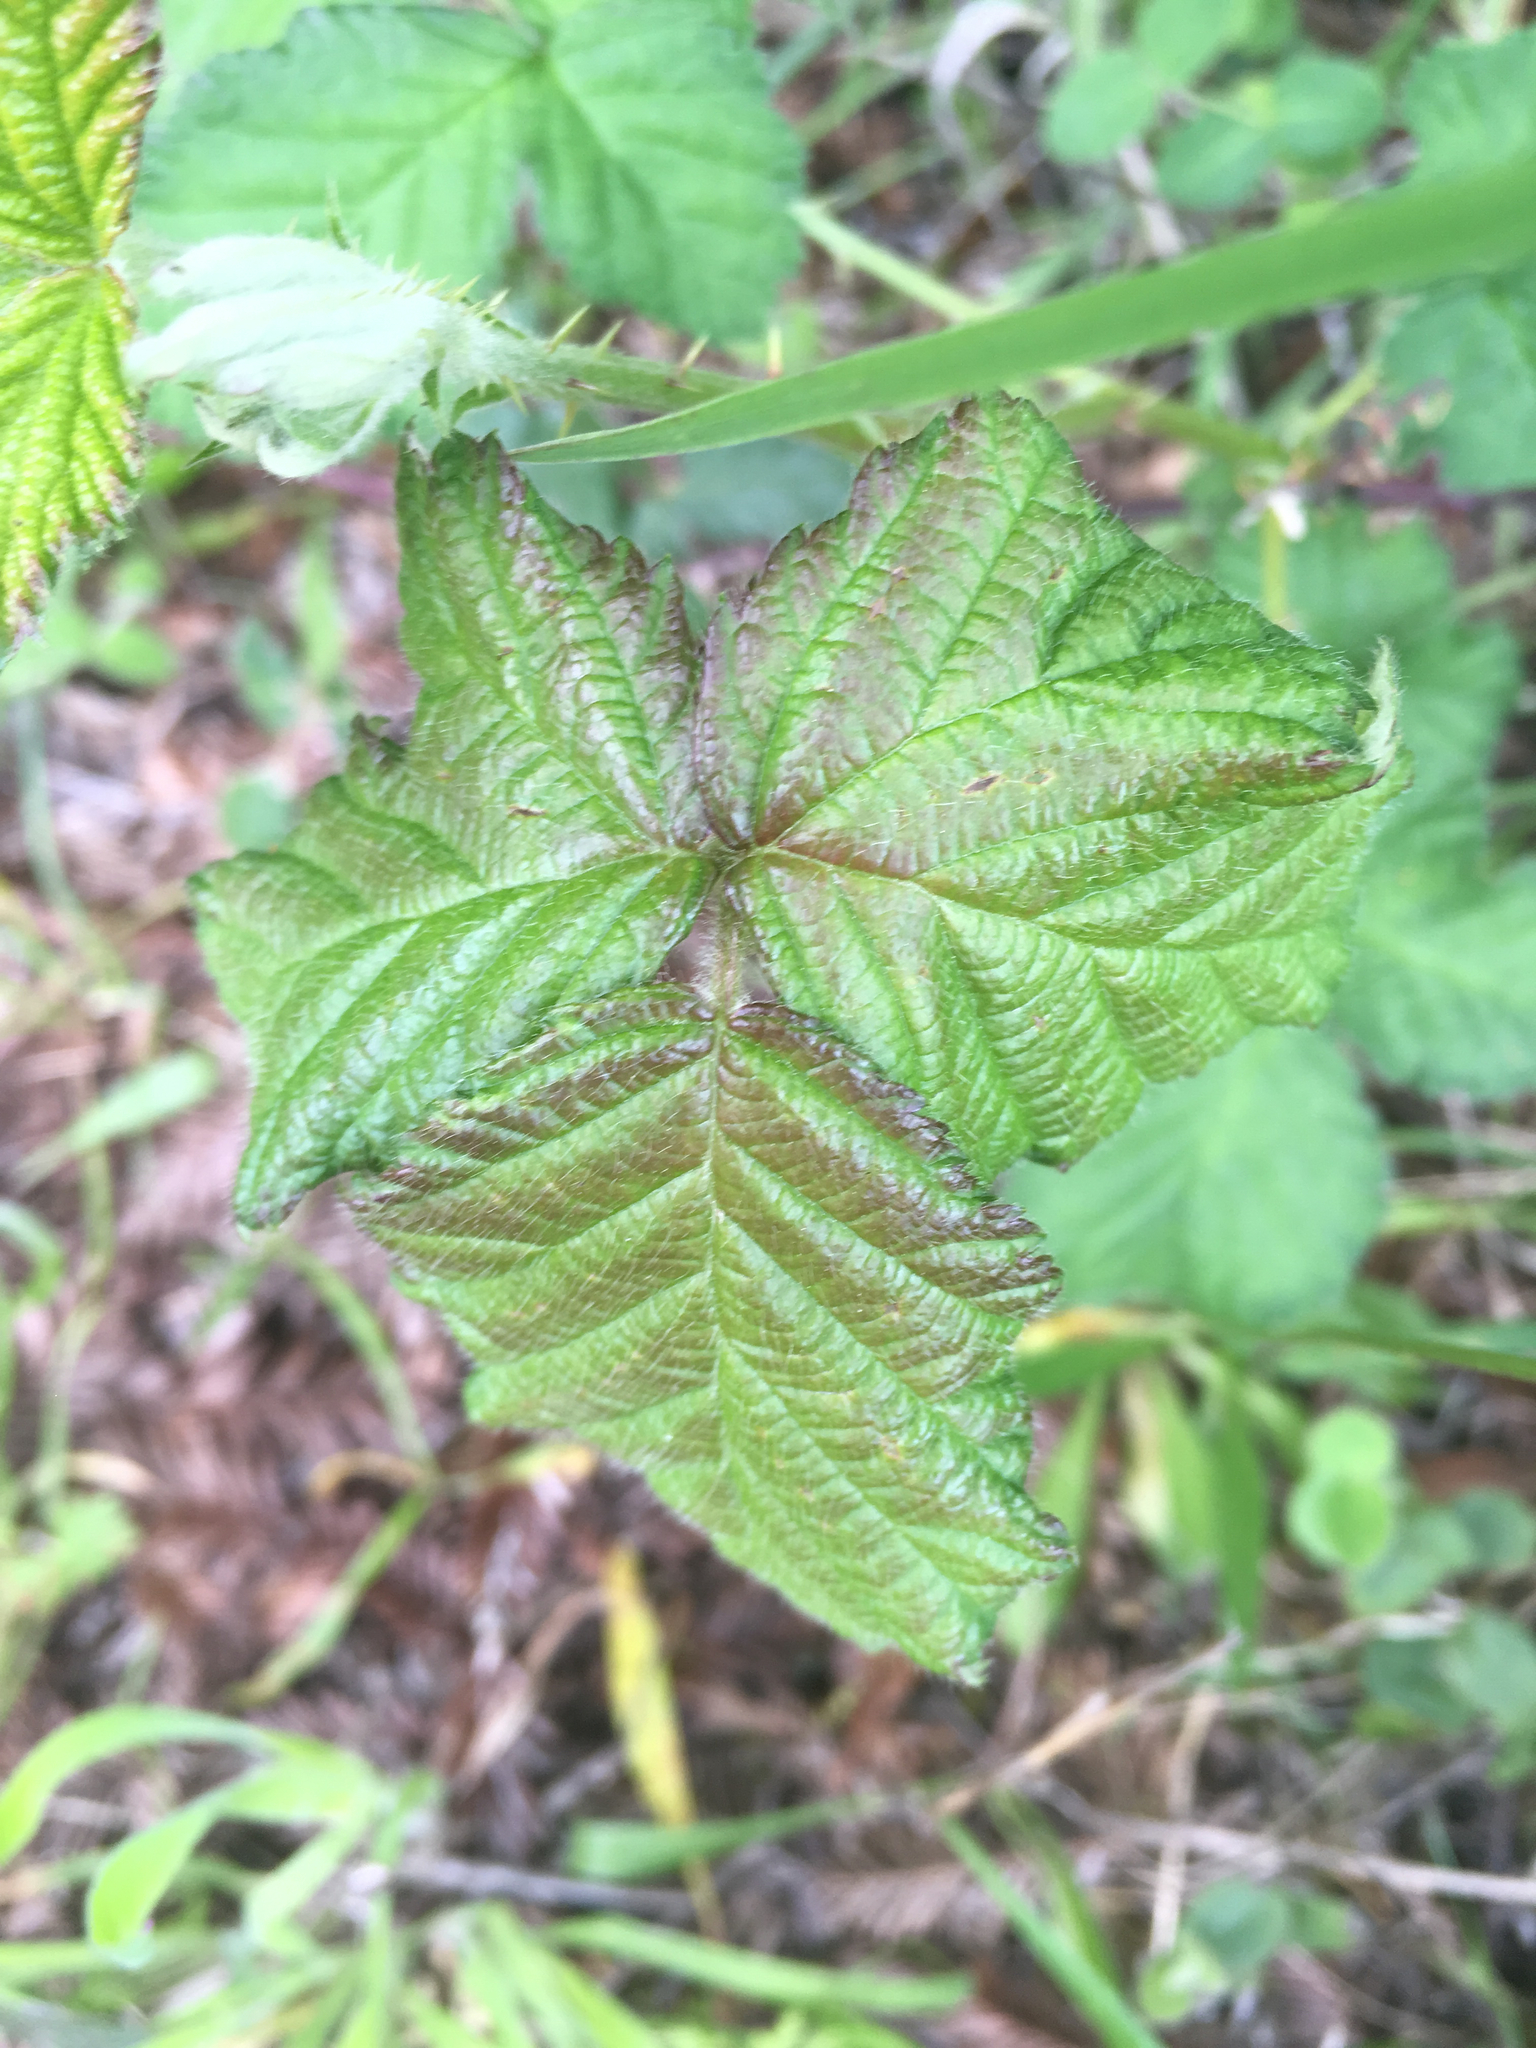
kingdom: Plantae
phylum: Tracheophyta
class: Magnoliopsida
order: Rosales
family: Rosaceae
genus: Rubus
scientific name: Rubus armeniacus
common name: Himalayan blackberry
